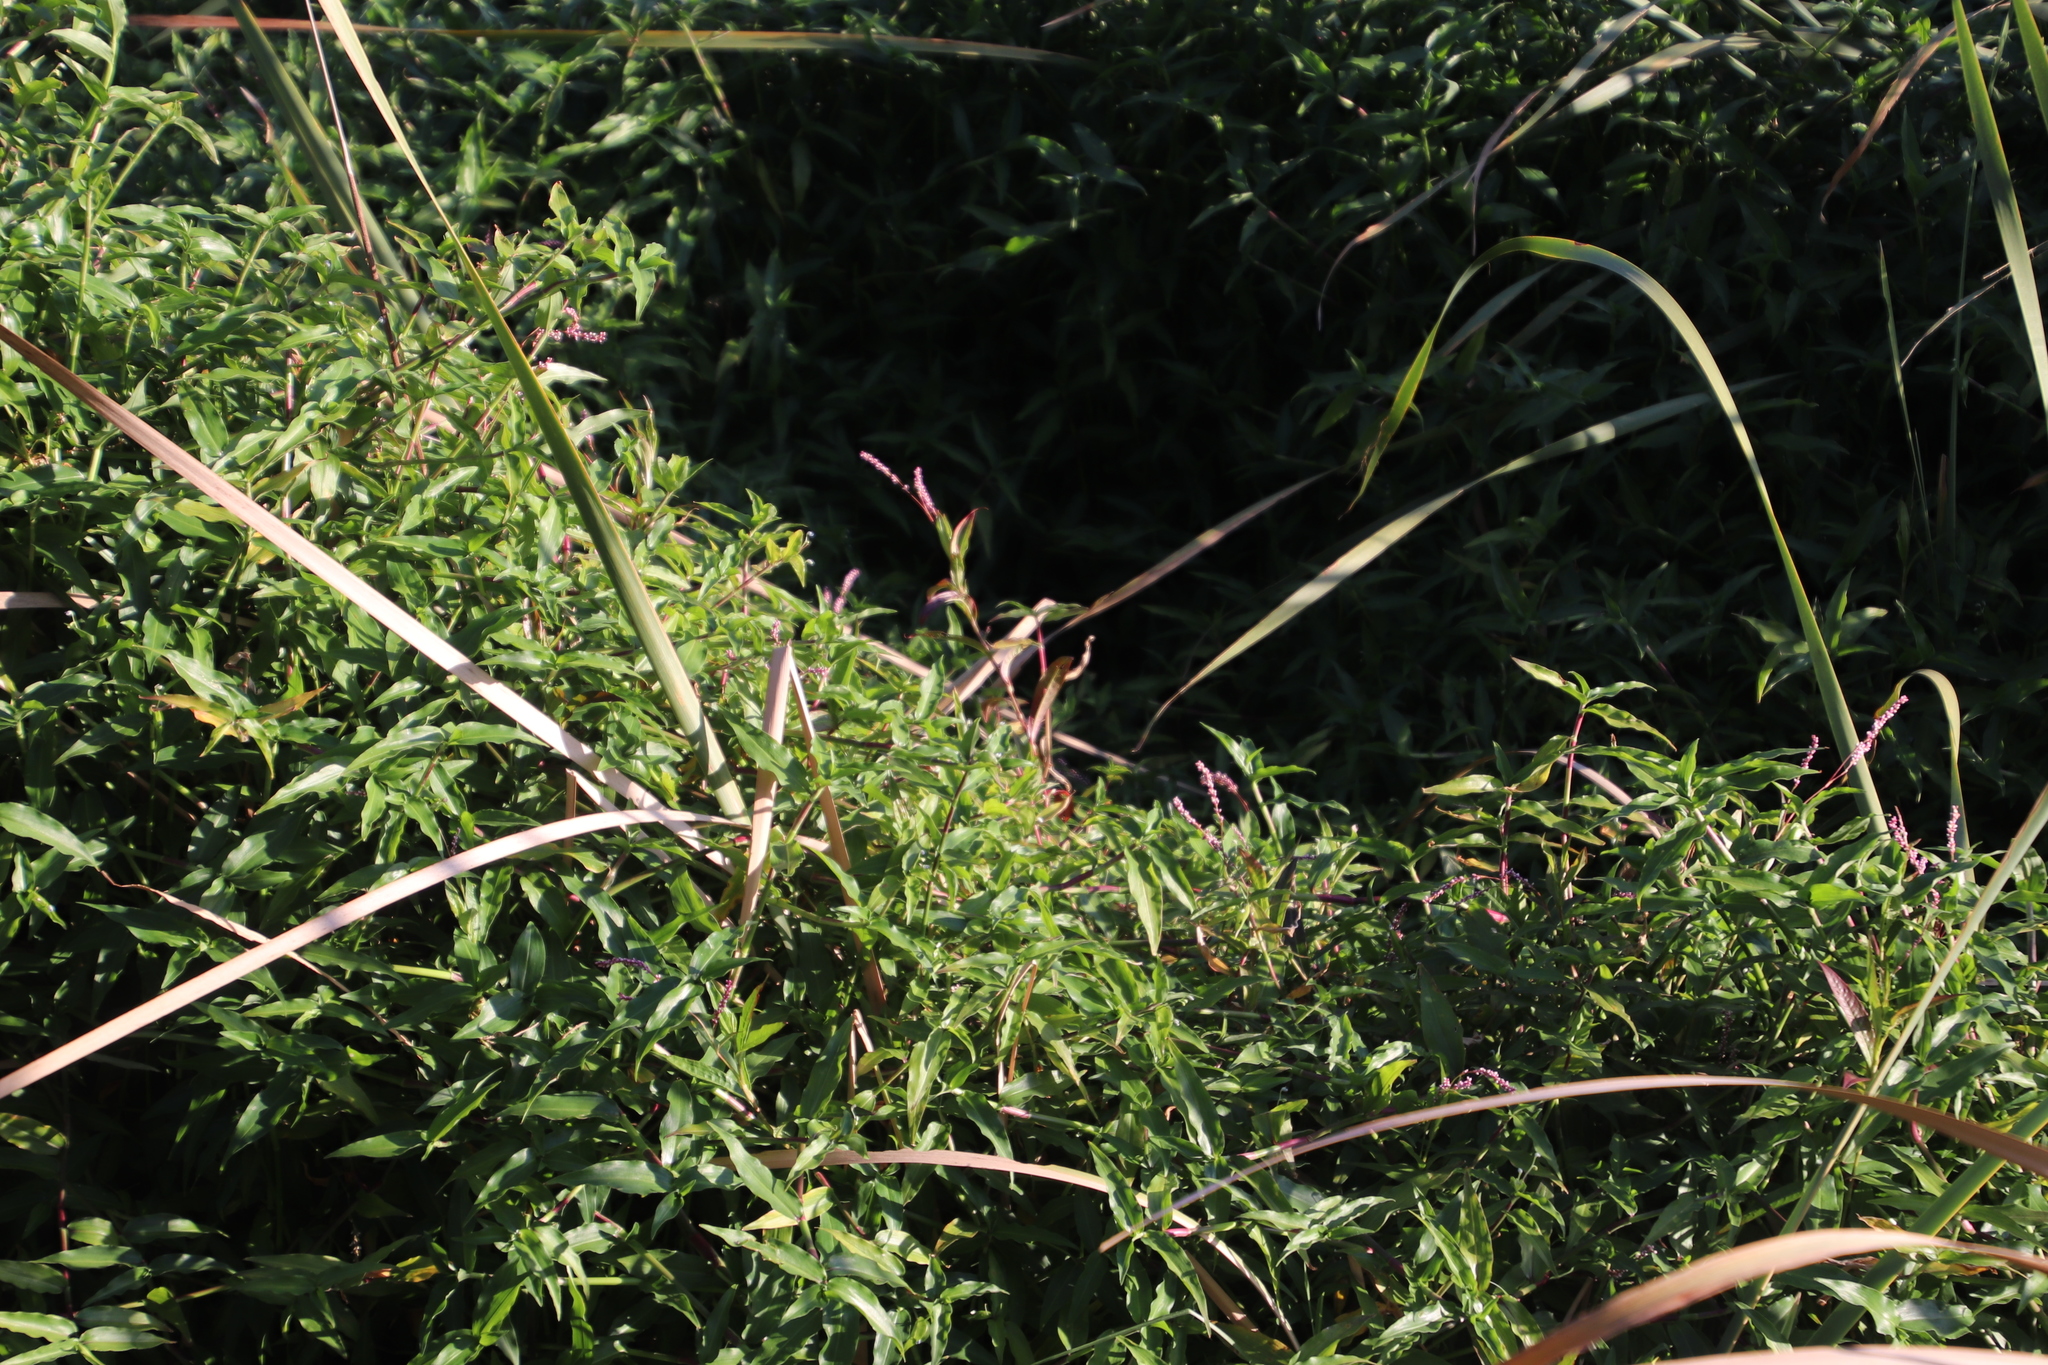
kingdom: Plantae
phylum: Tracheophyta
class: Magnoliopsida
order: Caryophyllales
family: Polygonaceae
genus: Persicaria
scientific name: Persicaria decipiens
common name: Willow-weed
